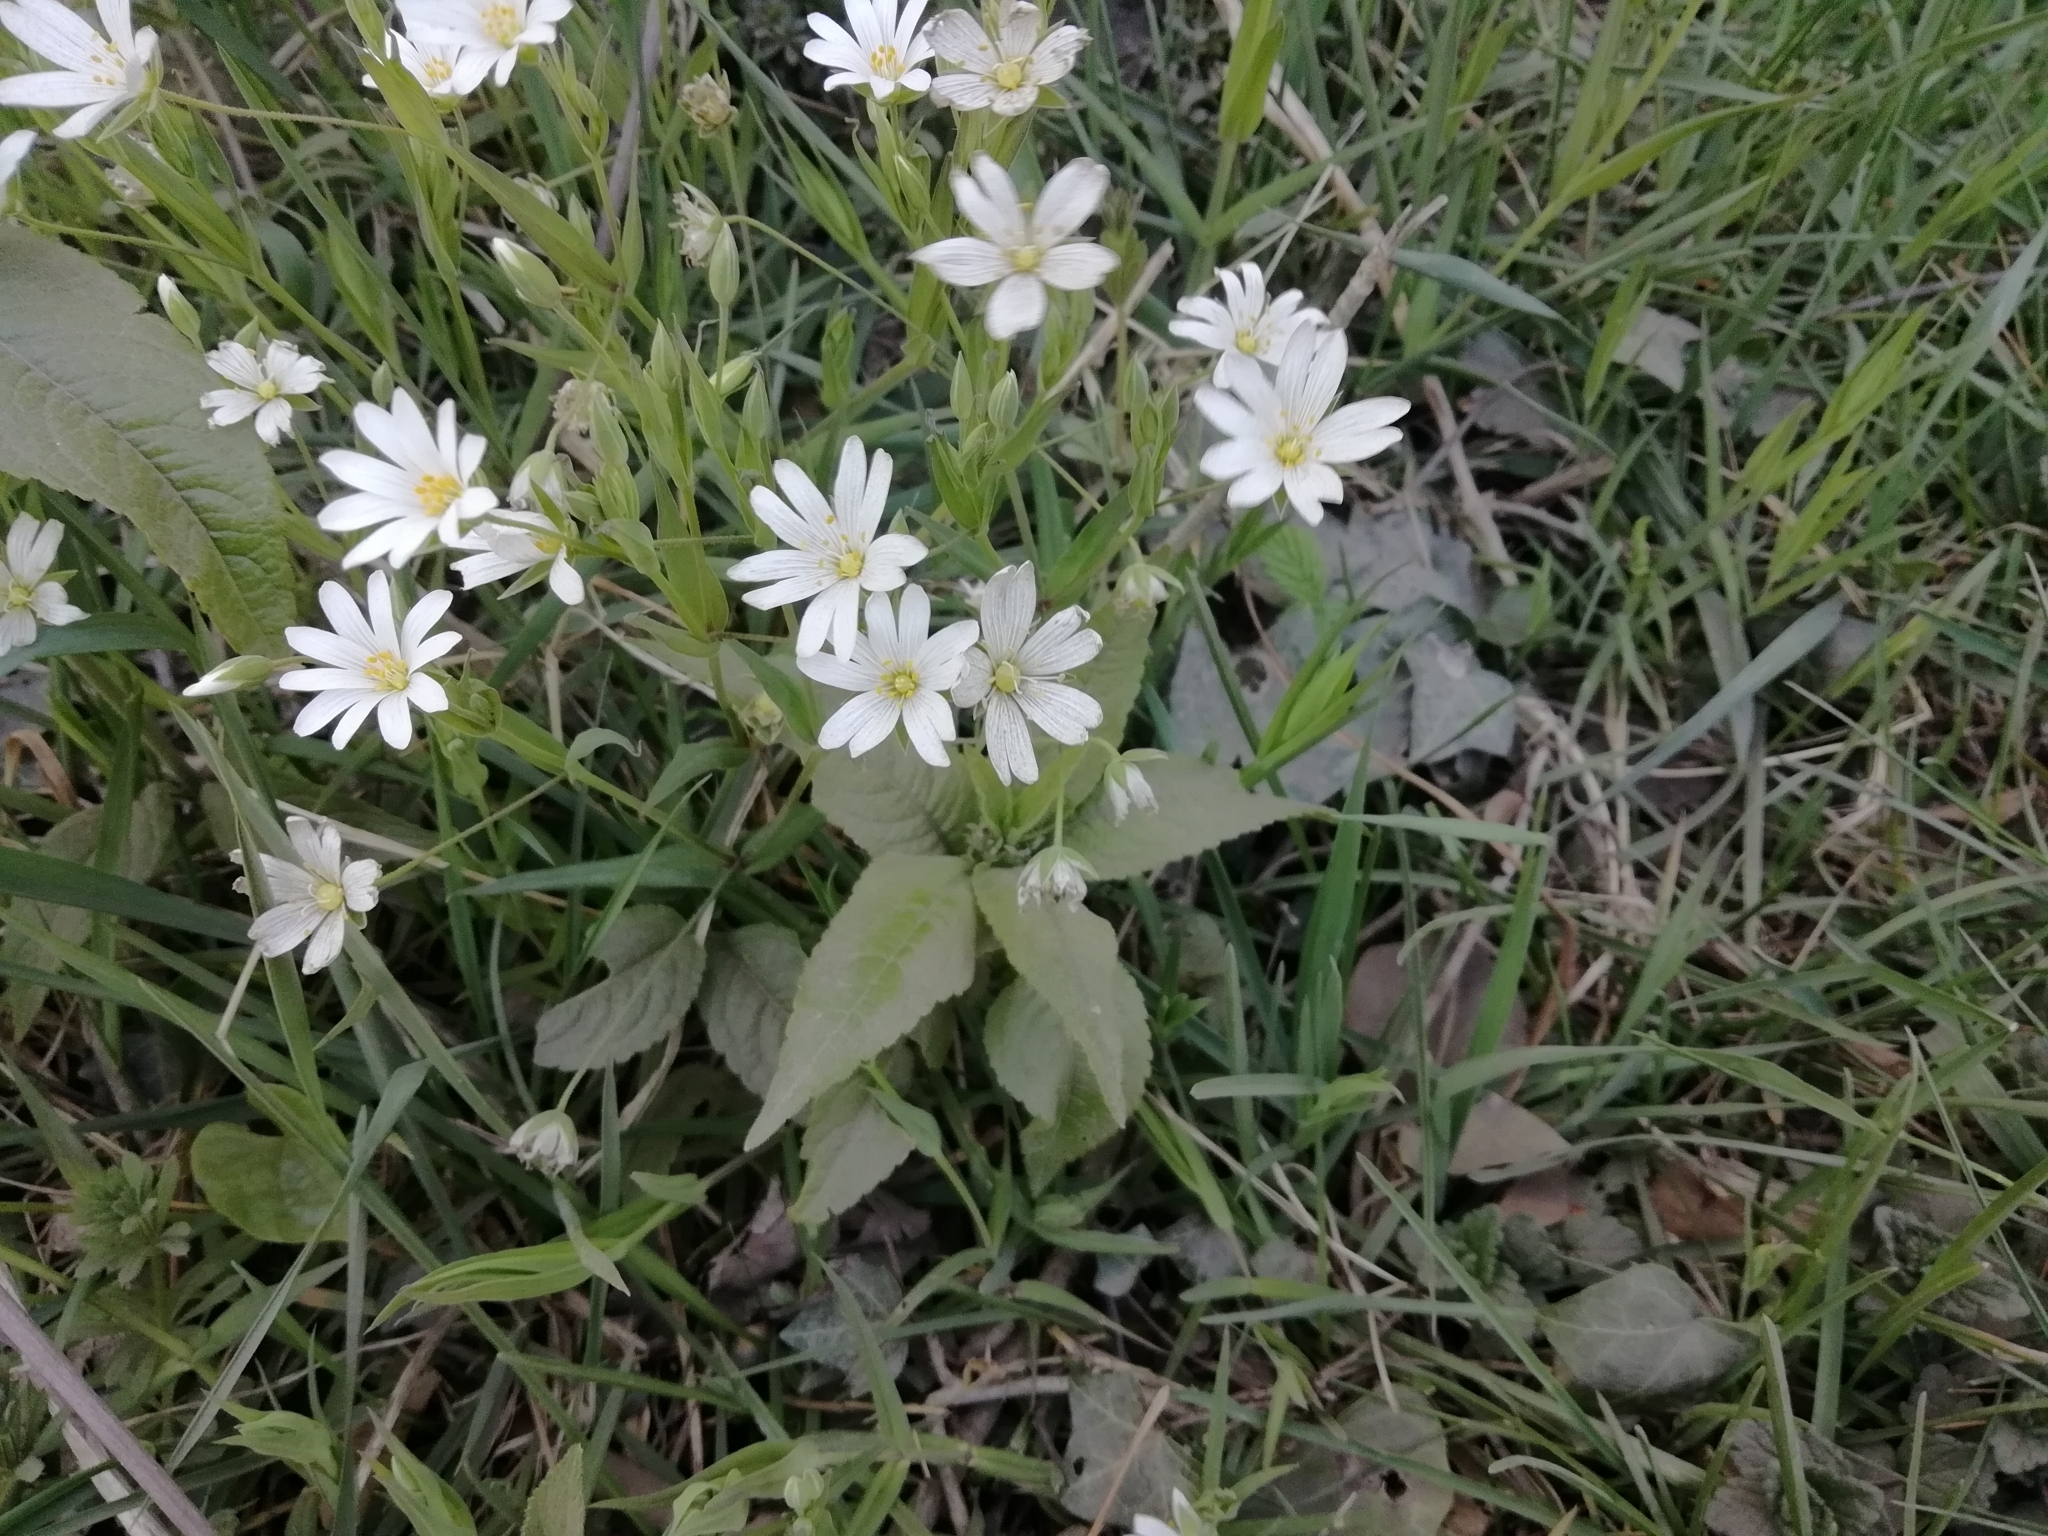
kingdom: Plantae
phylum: Tracheophyta
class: Magnoliopsida
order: Caryophyllales
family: Caryophyllaceae
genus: Rabelera
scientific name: Rabelera holostea
